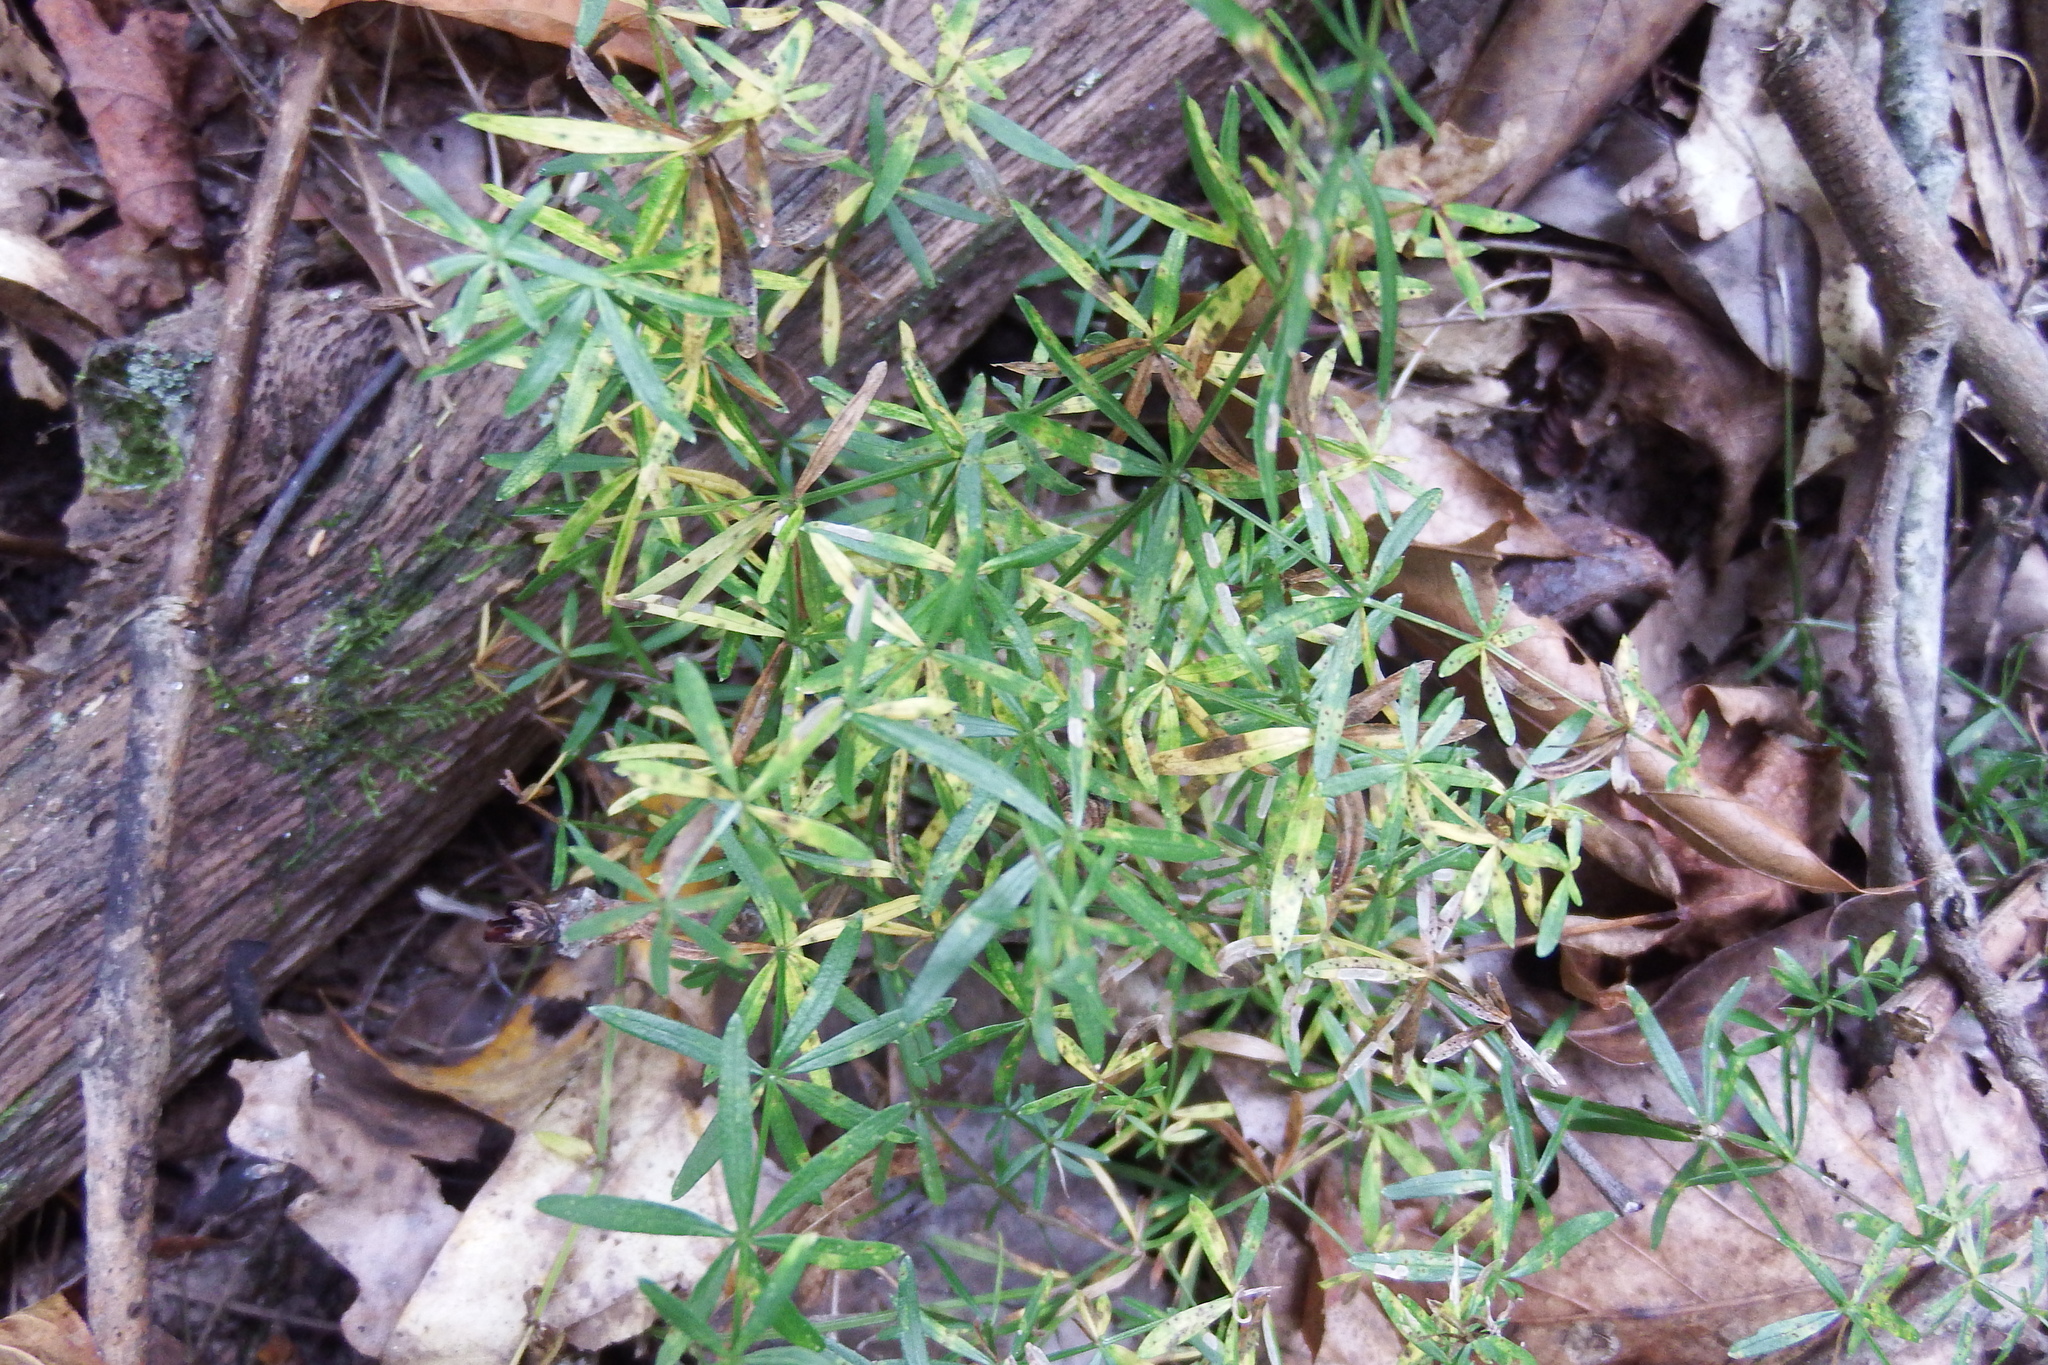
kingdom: Plantae
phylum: Tracheophyta
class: Magnoliopsida
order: Gentianales
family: Rubiaceae
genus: Galium
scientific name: Galium concinnum
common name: Shining bedstraw
